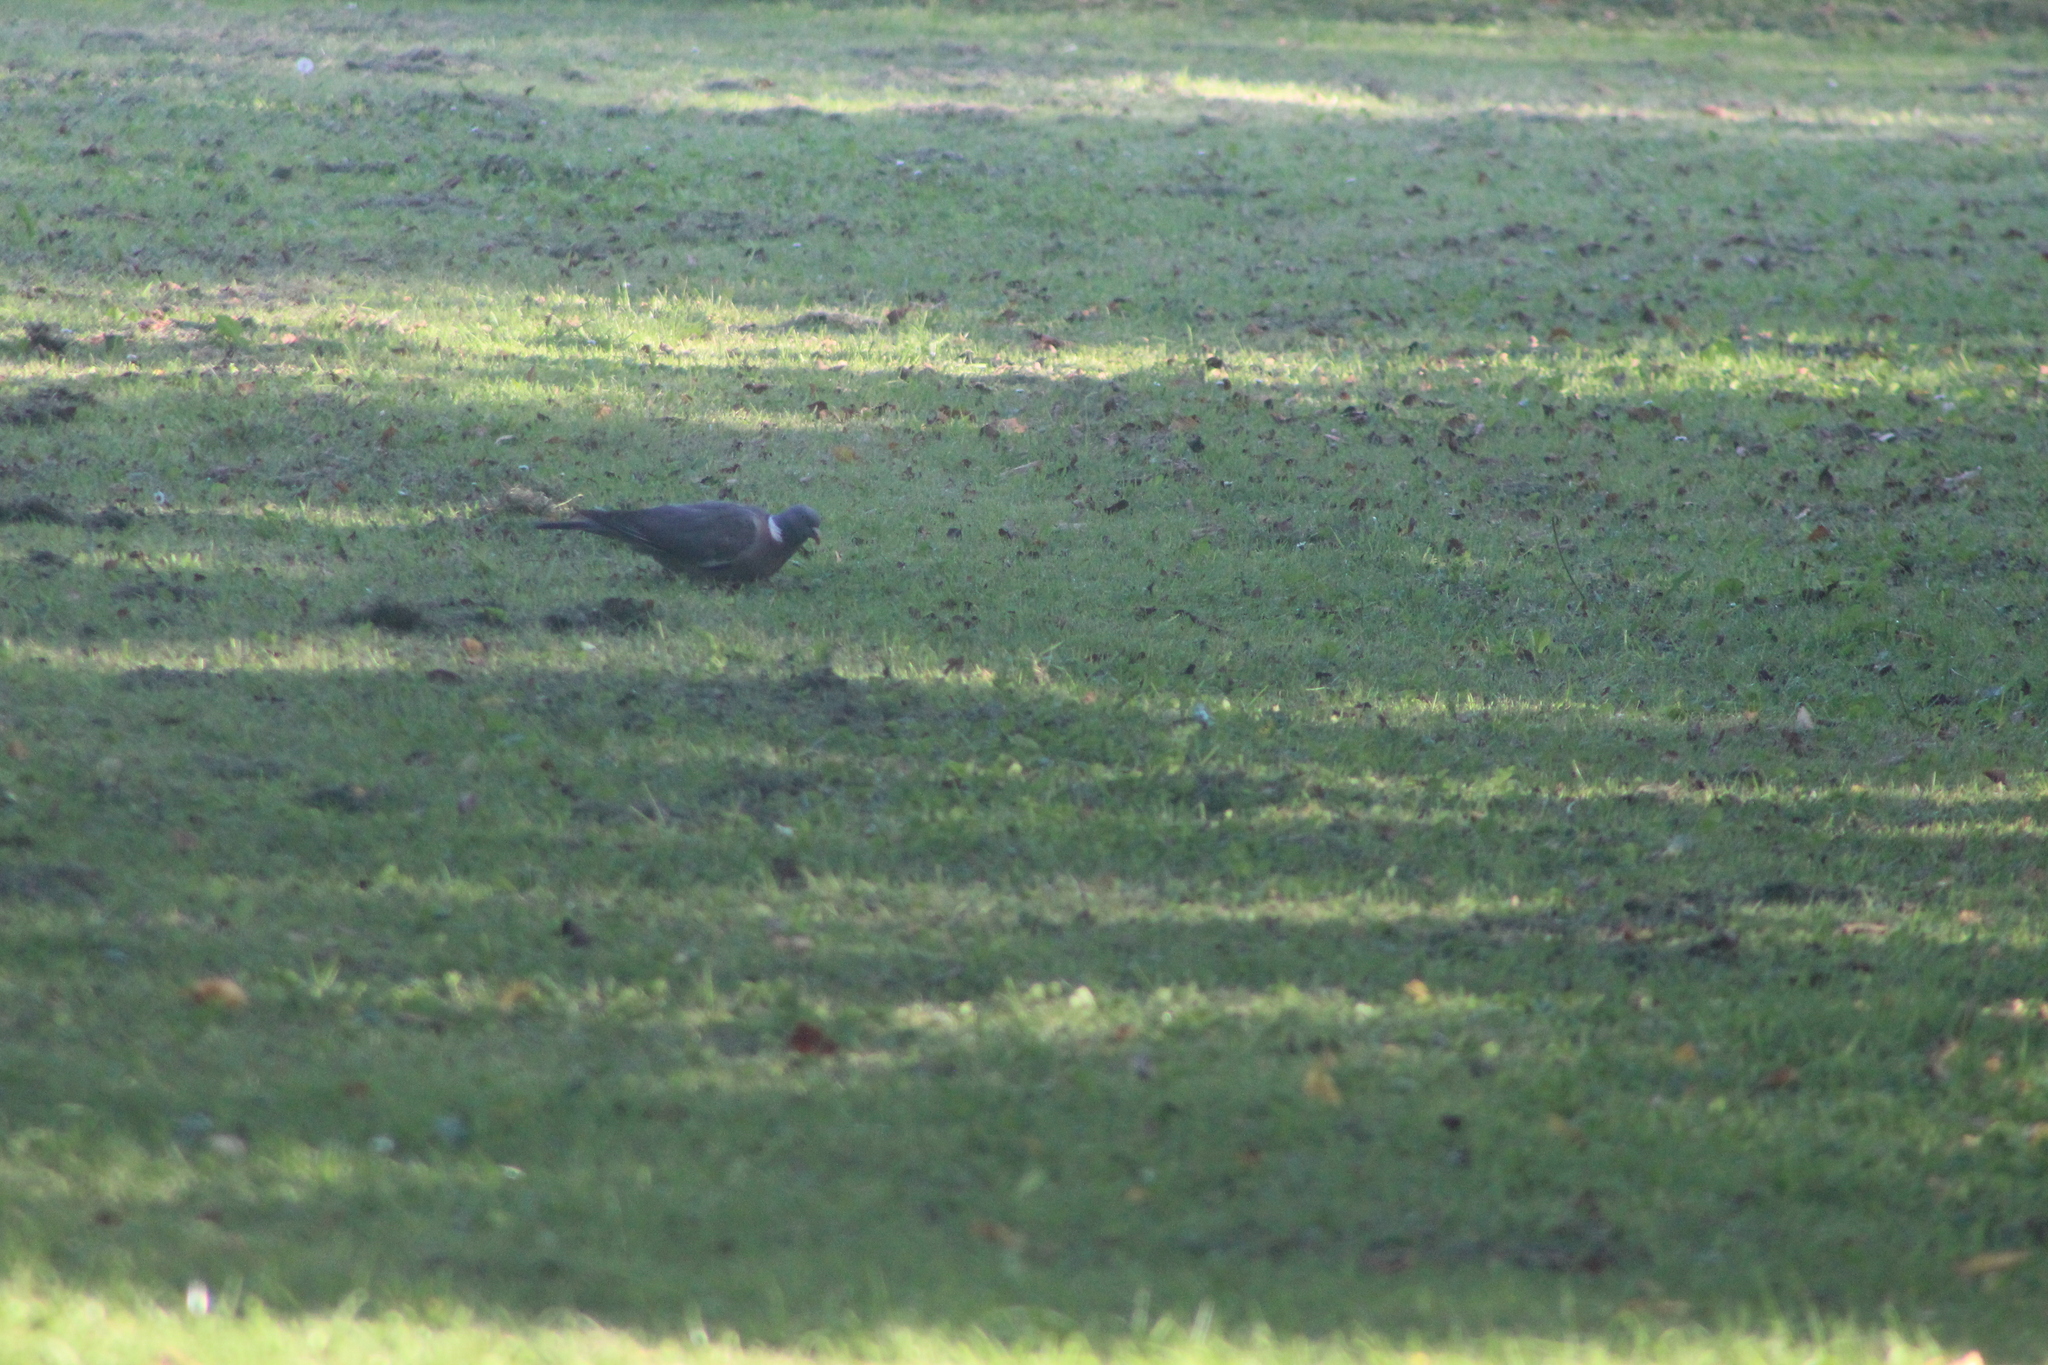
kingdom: Animalia
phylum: Chordata
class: Aves
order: Columbiformes
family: Columbidae
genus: Columba
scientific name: Columba palumbus
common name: Common wood pigeon
